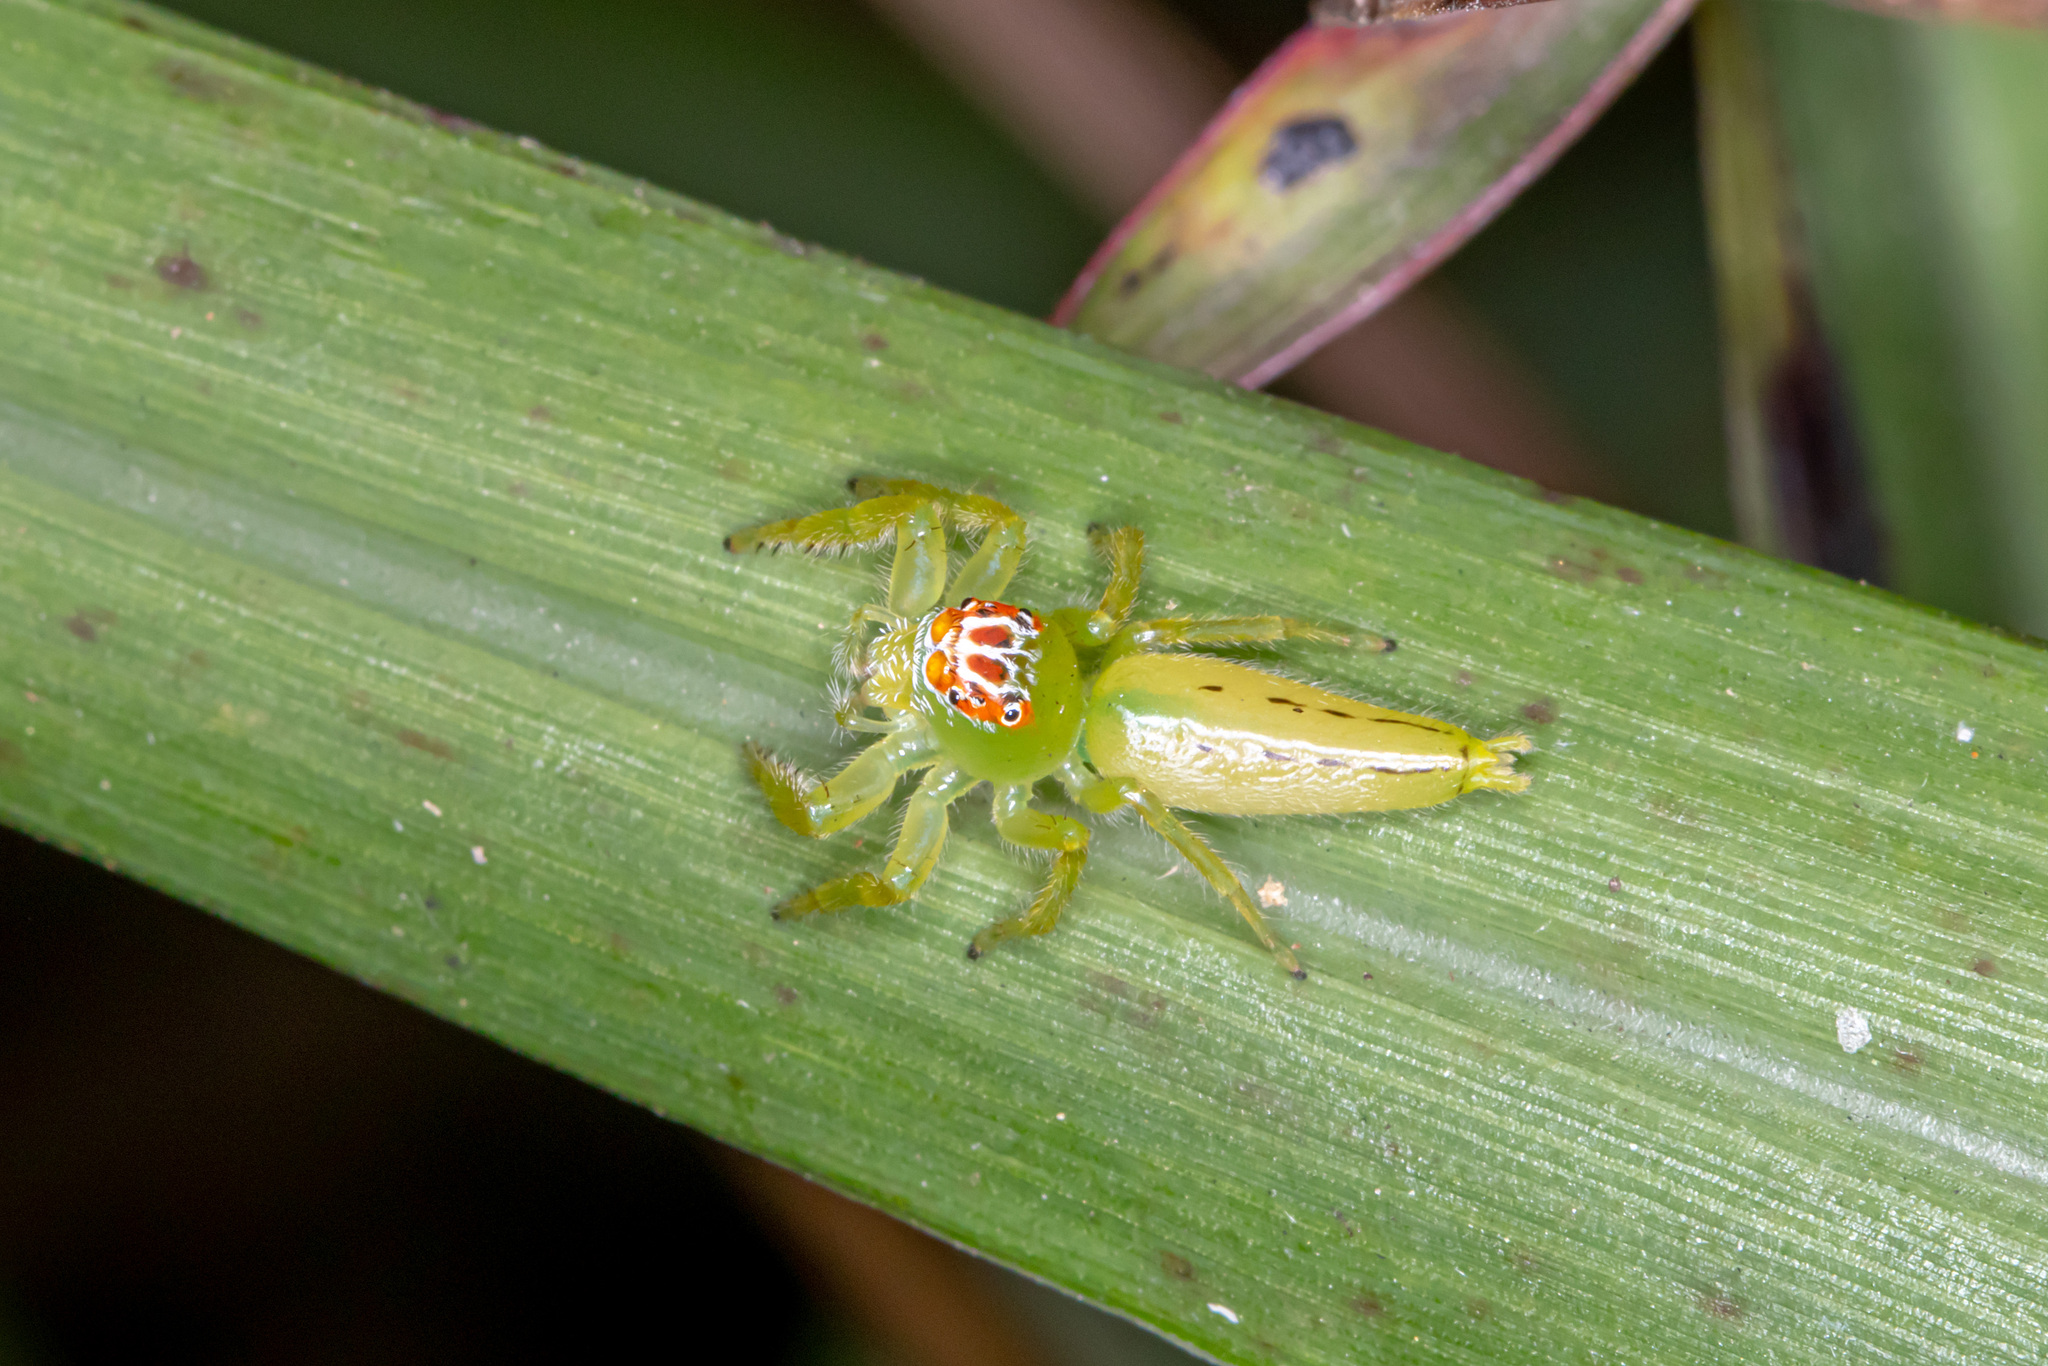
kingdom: Animalia
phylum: Arthropoda
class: Arachnida
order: Araneae
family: Salticidae
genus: Mopsus
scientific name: Mopsus mormon
